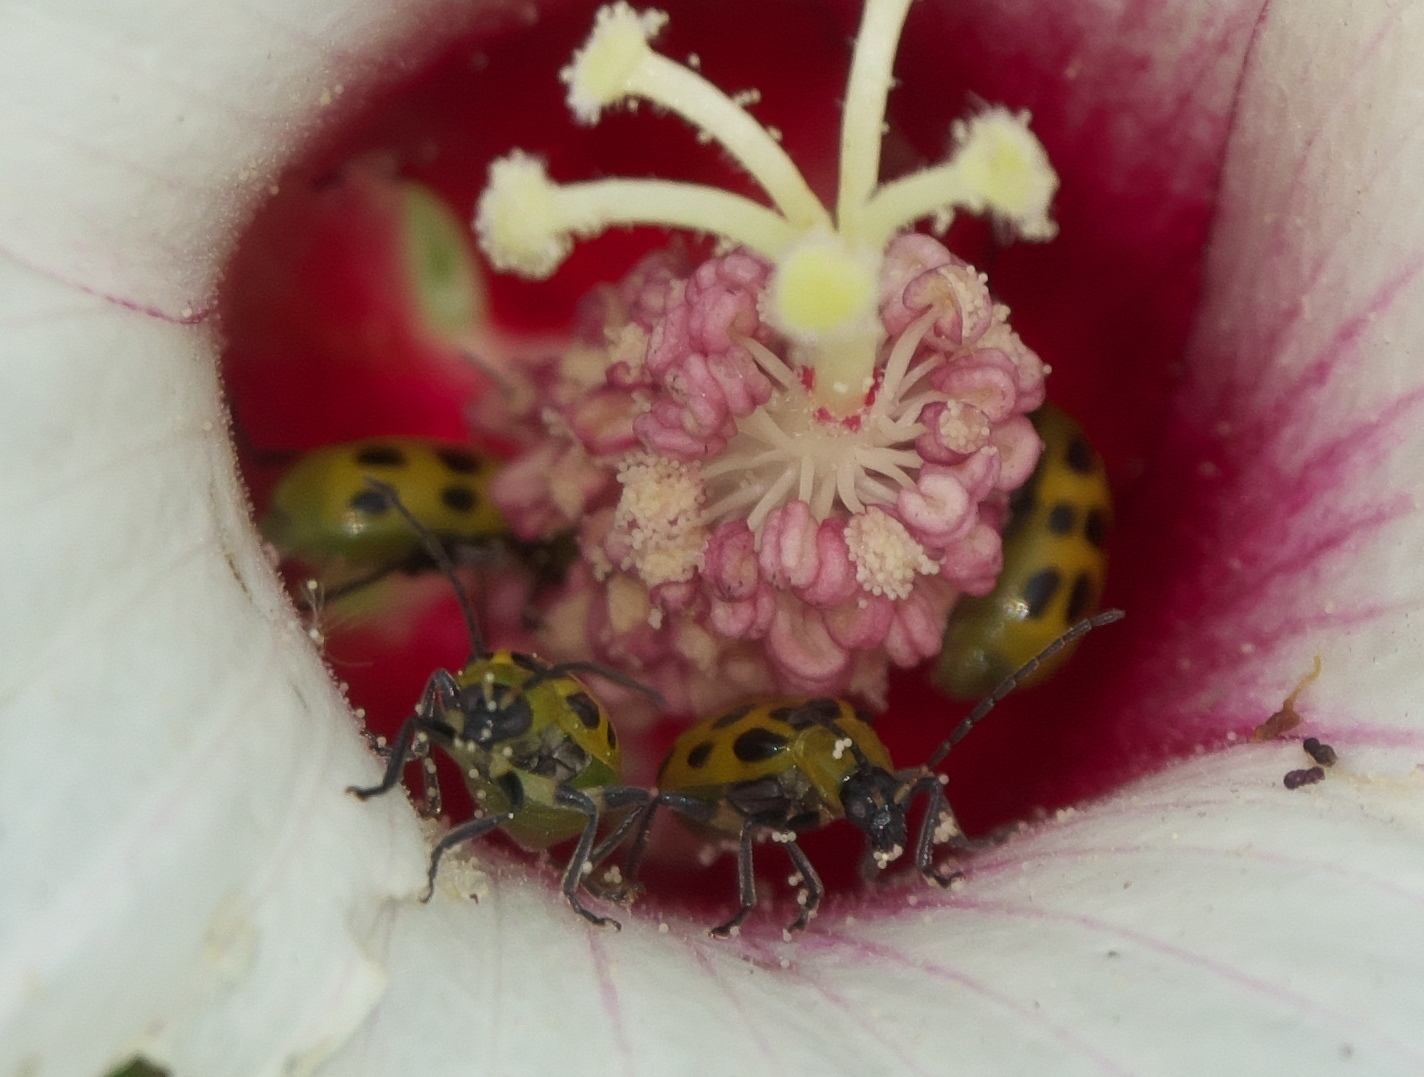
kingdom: Animalia
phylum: Arthropoda
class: Insecta
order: Coleoptera
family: Chrysomelidae
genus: Diabrotica
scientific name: Diabrotica undecimpunctata
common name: Spotted cucumber beetle
